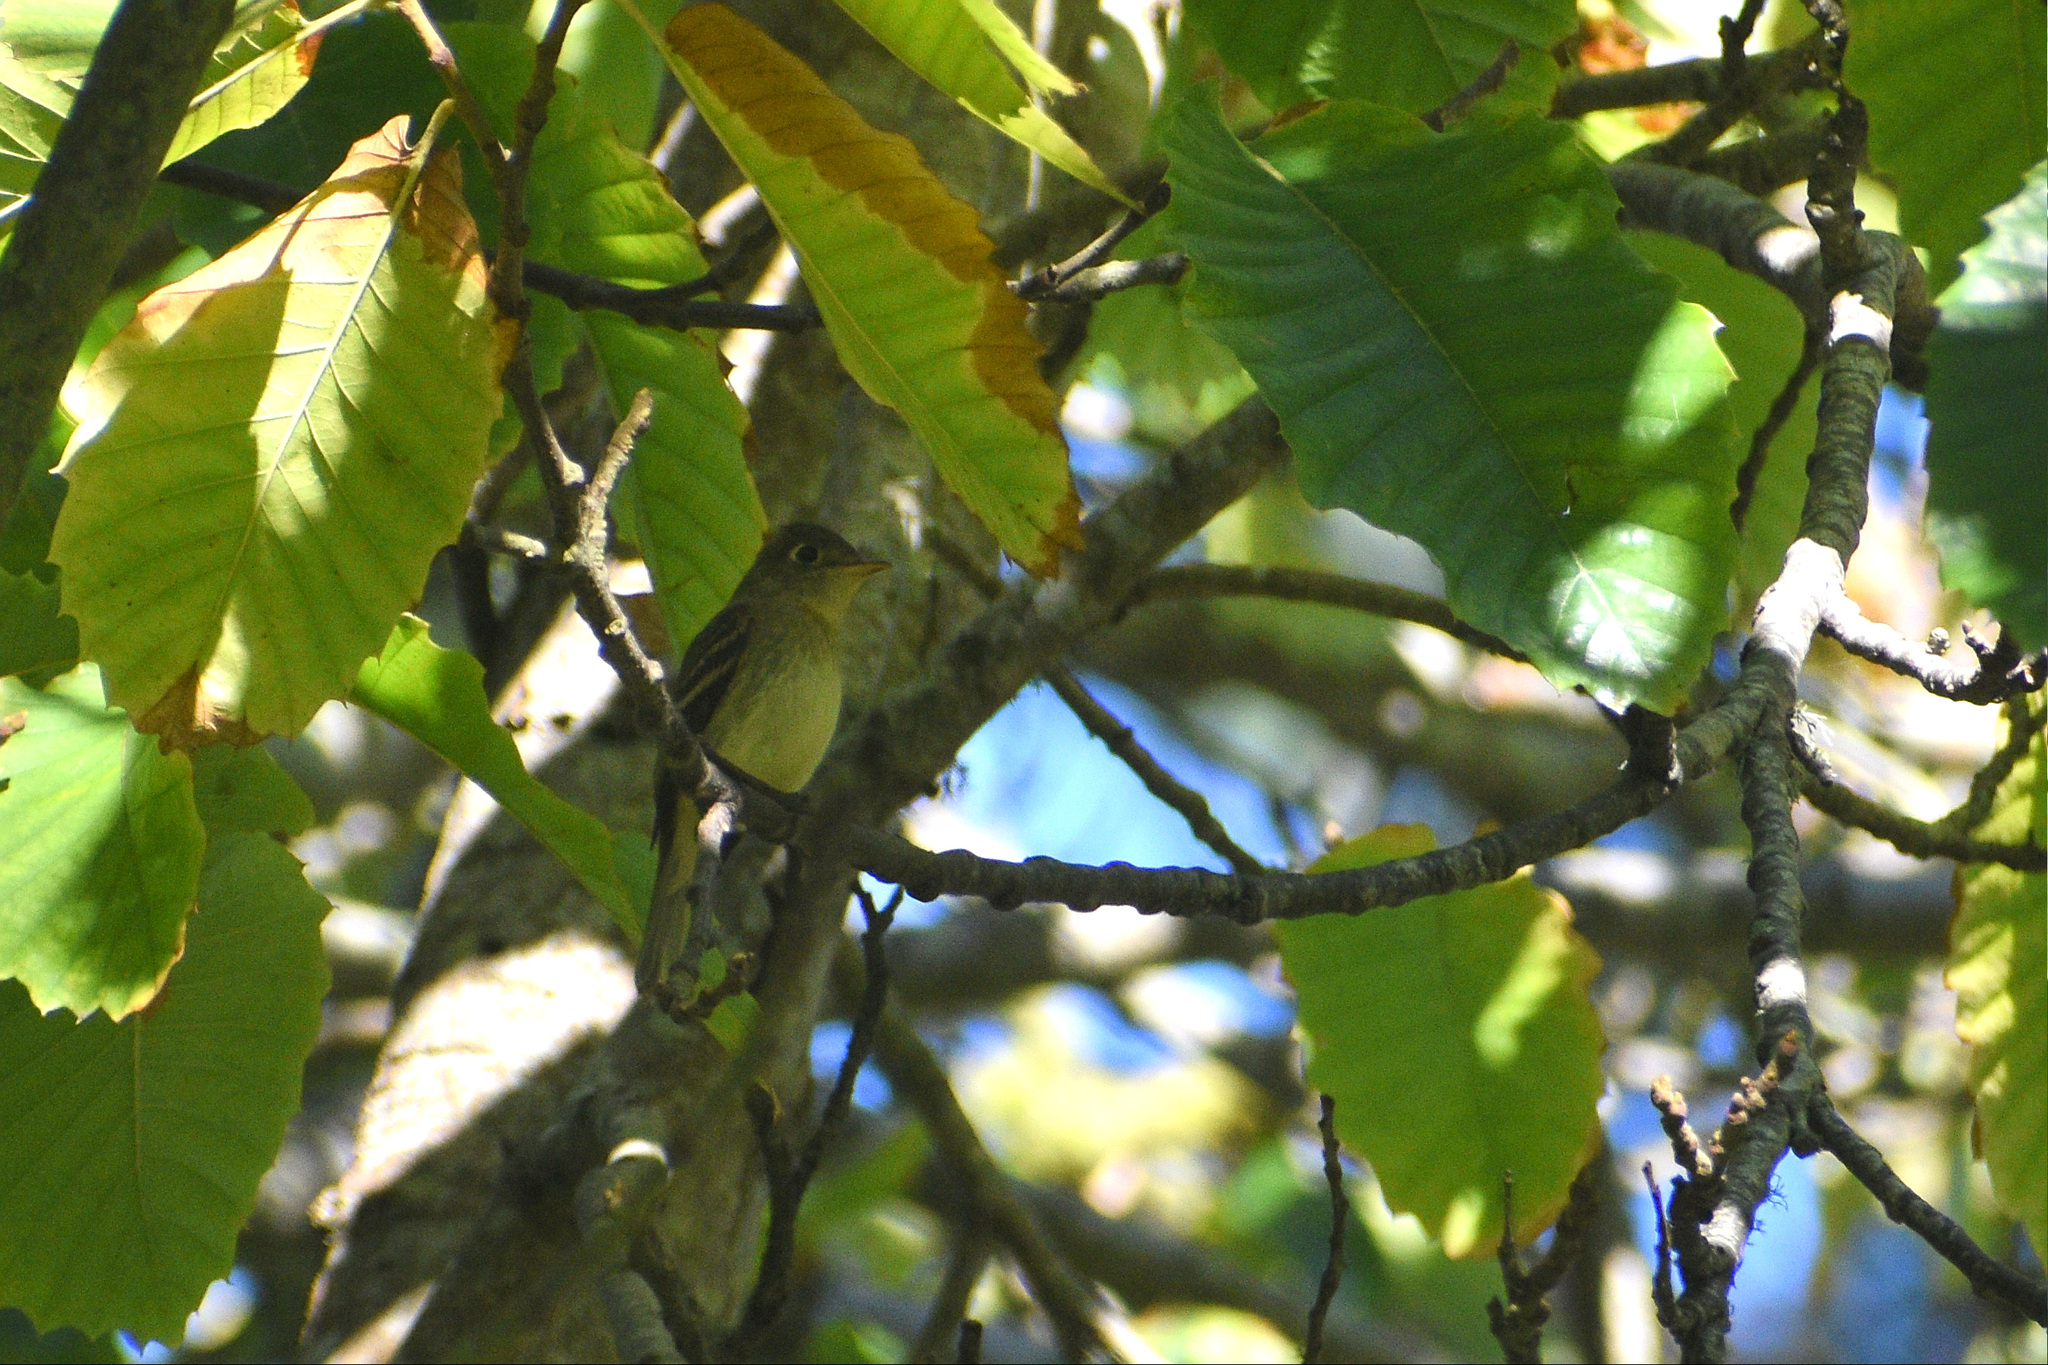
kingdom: Animalia
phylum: Chordata
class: Aves
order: Passeriformes
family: Tyrannidae
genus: Empidonax
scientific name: Empidonax difficilis
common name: Pacific-slope flycatcher
